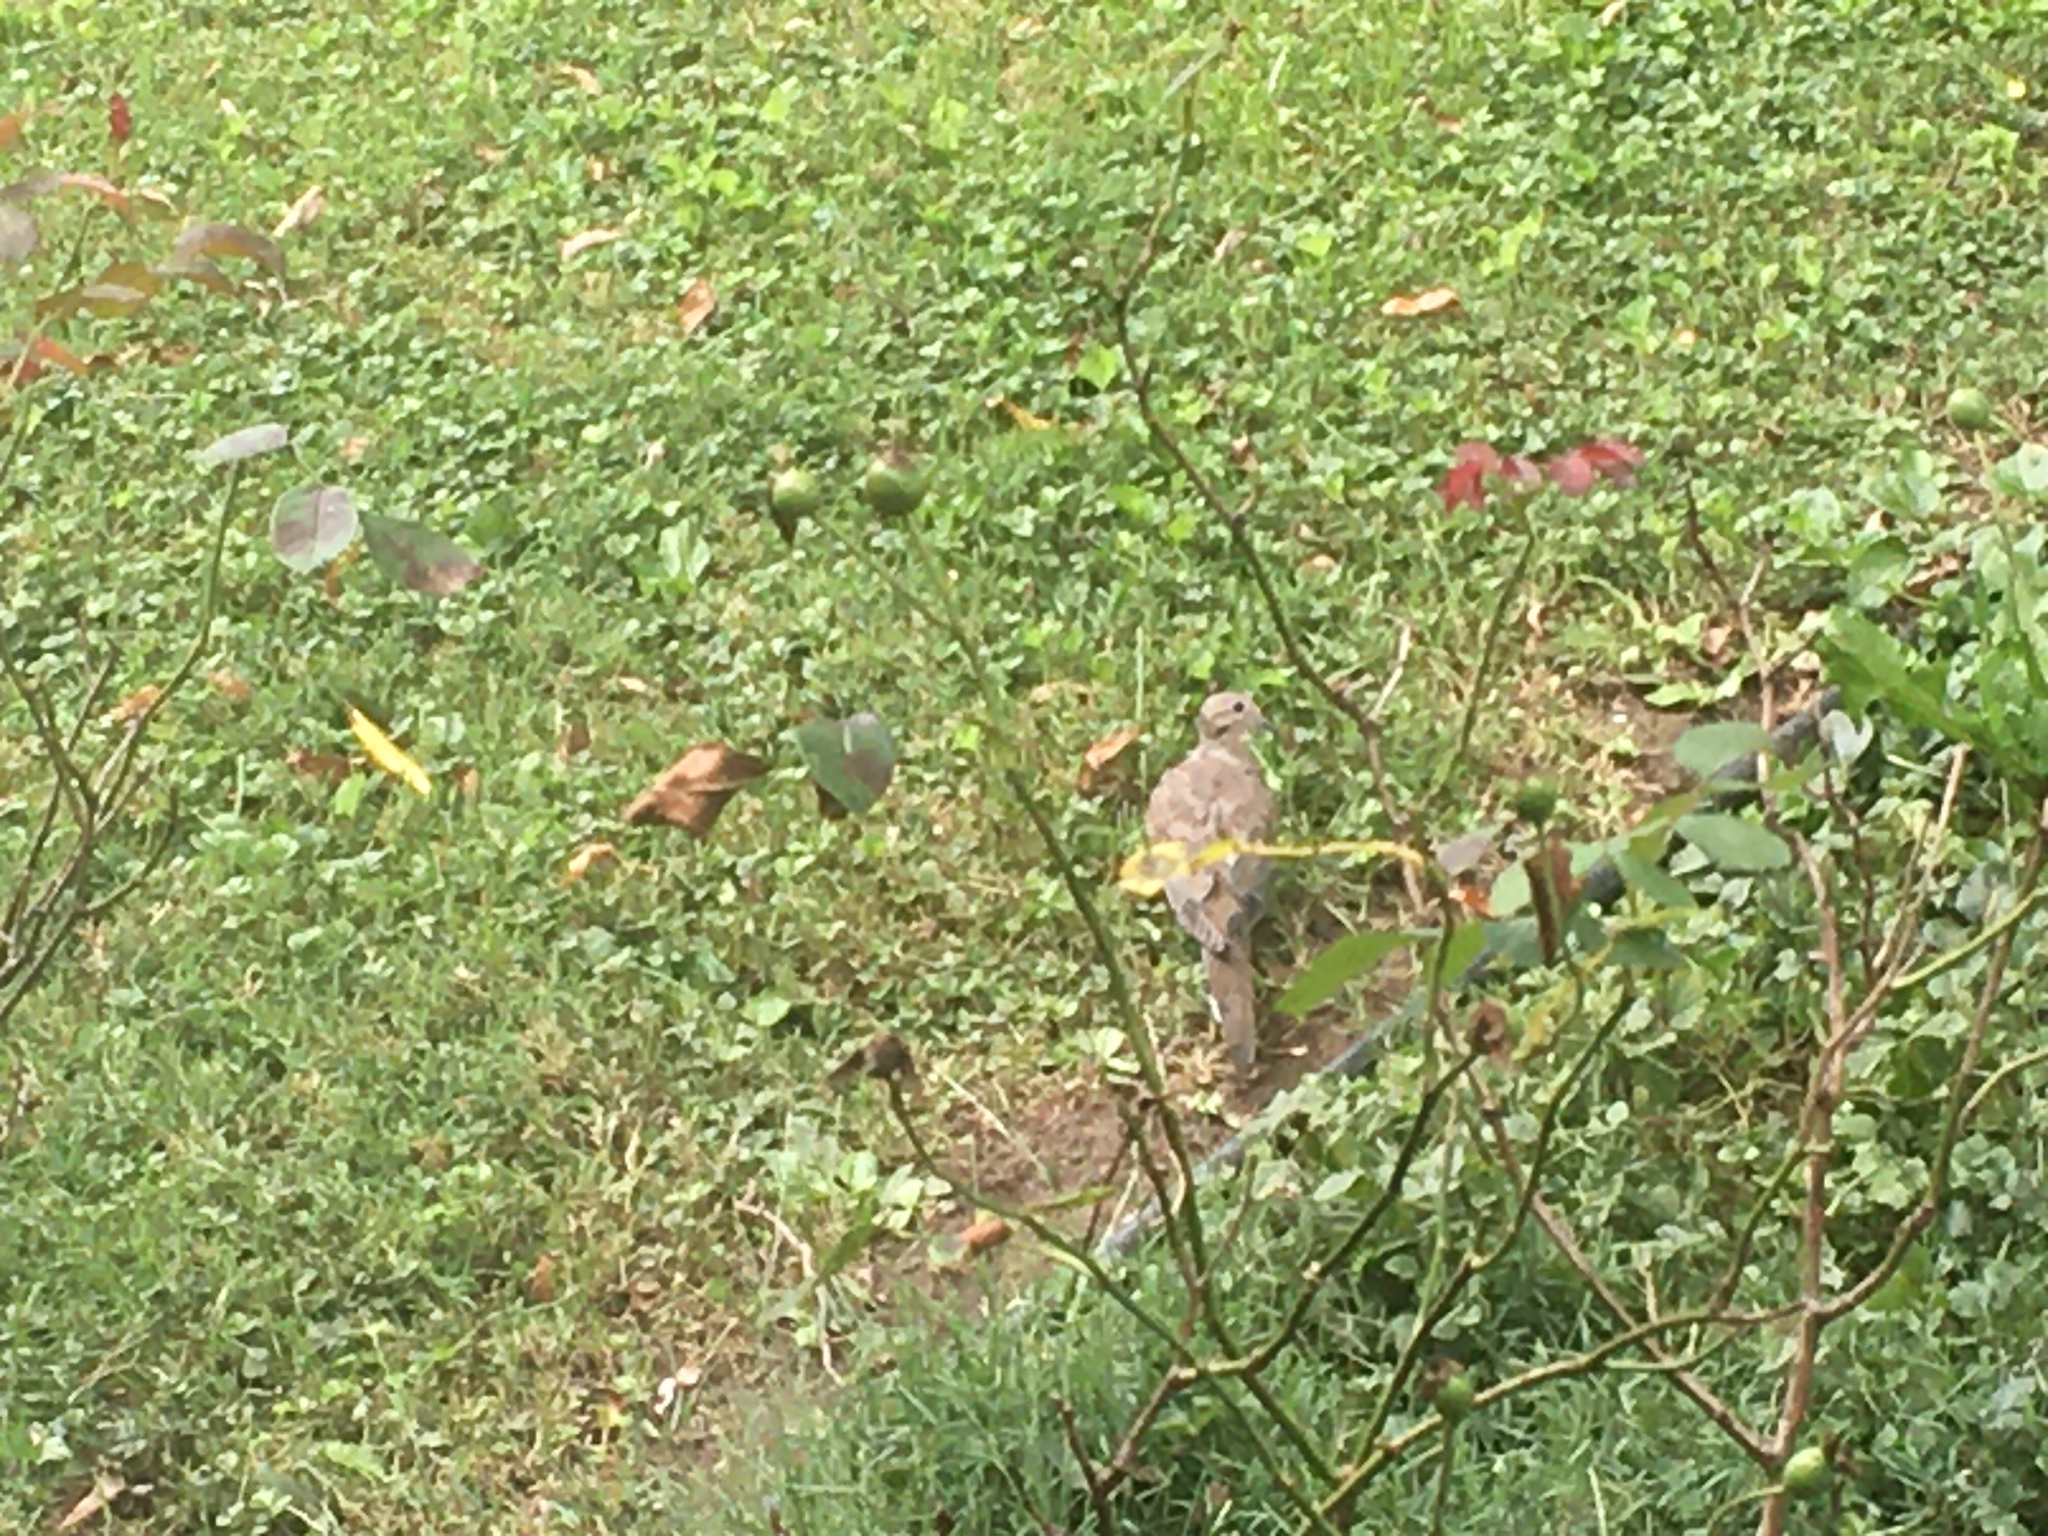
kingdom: Animalia
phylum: Chordata
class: Aves
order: Columbiformes
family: Columbidae
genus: Zenaida
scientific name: Zenaida macroura
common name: Mourning dove
